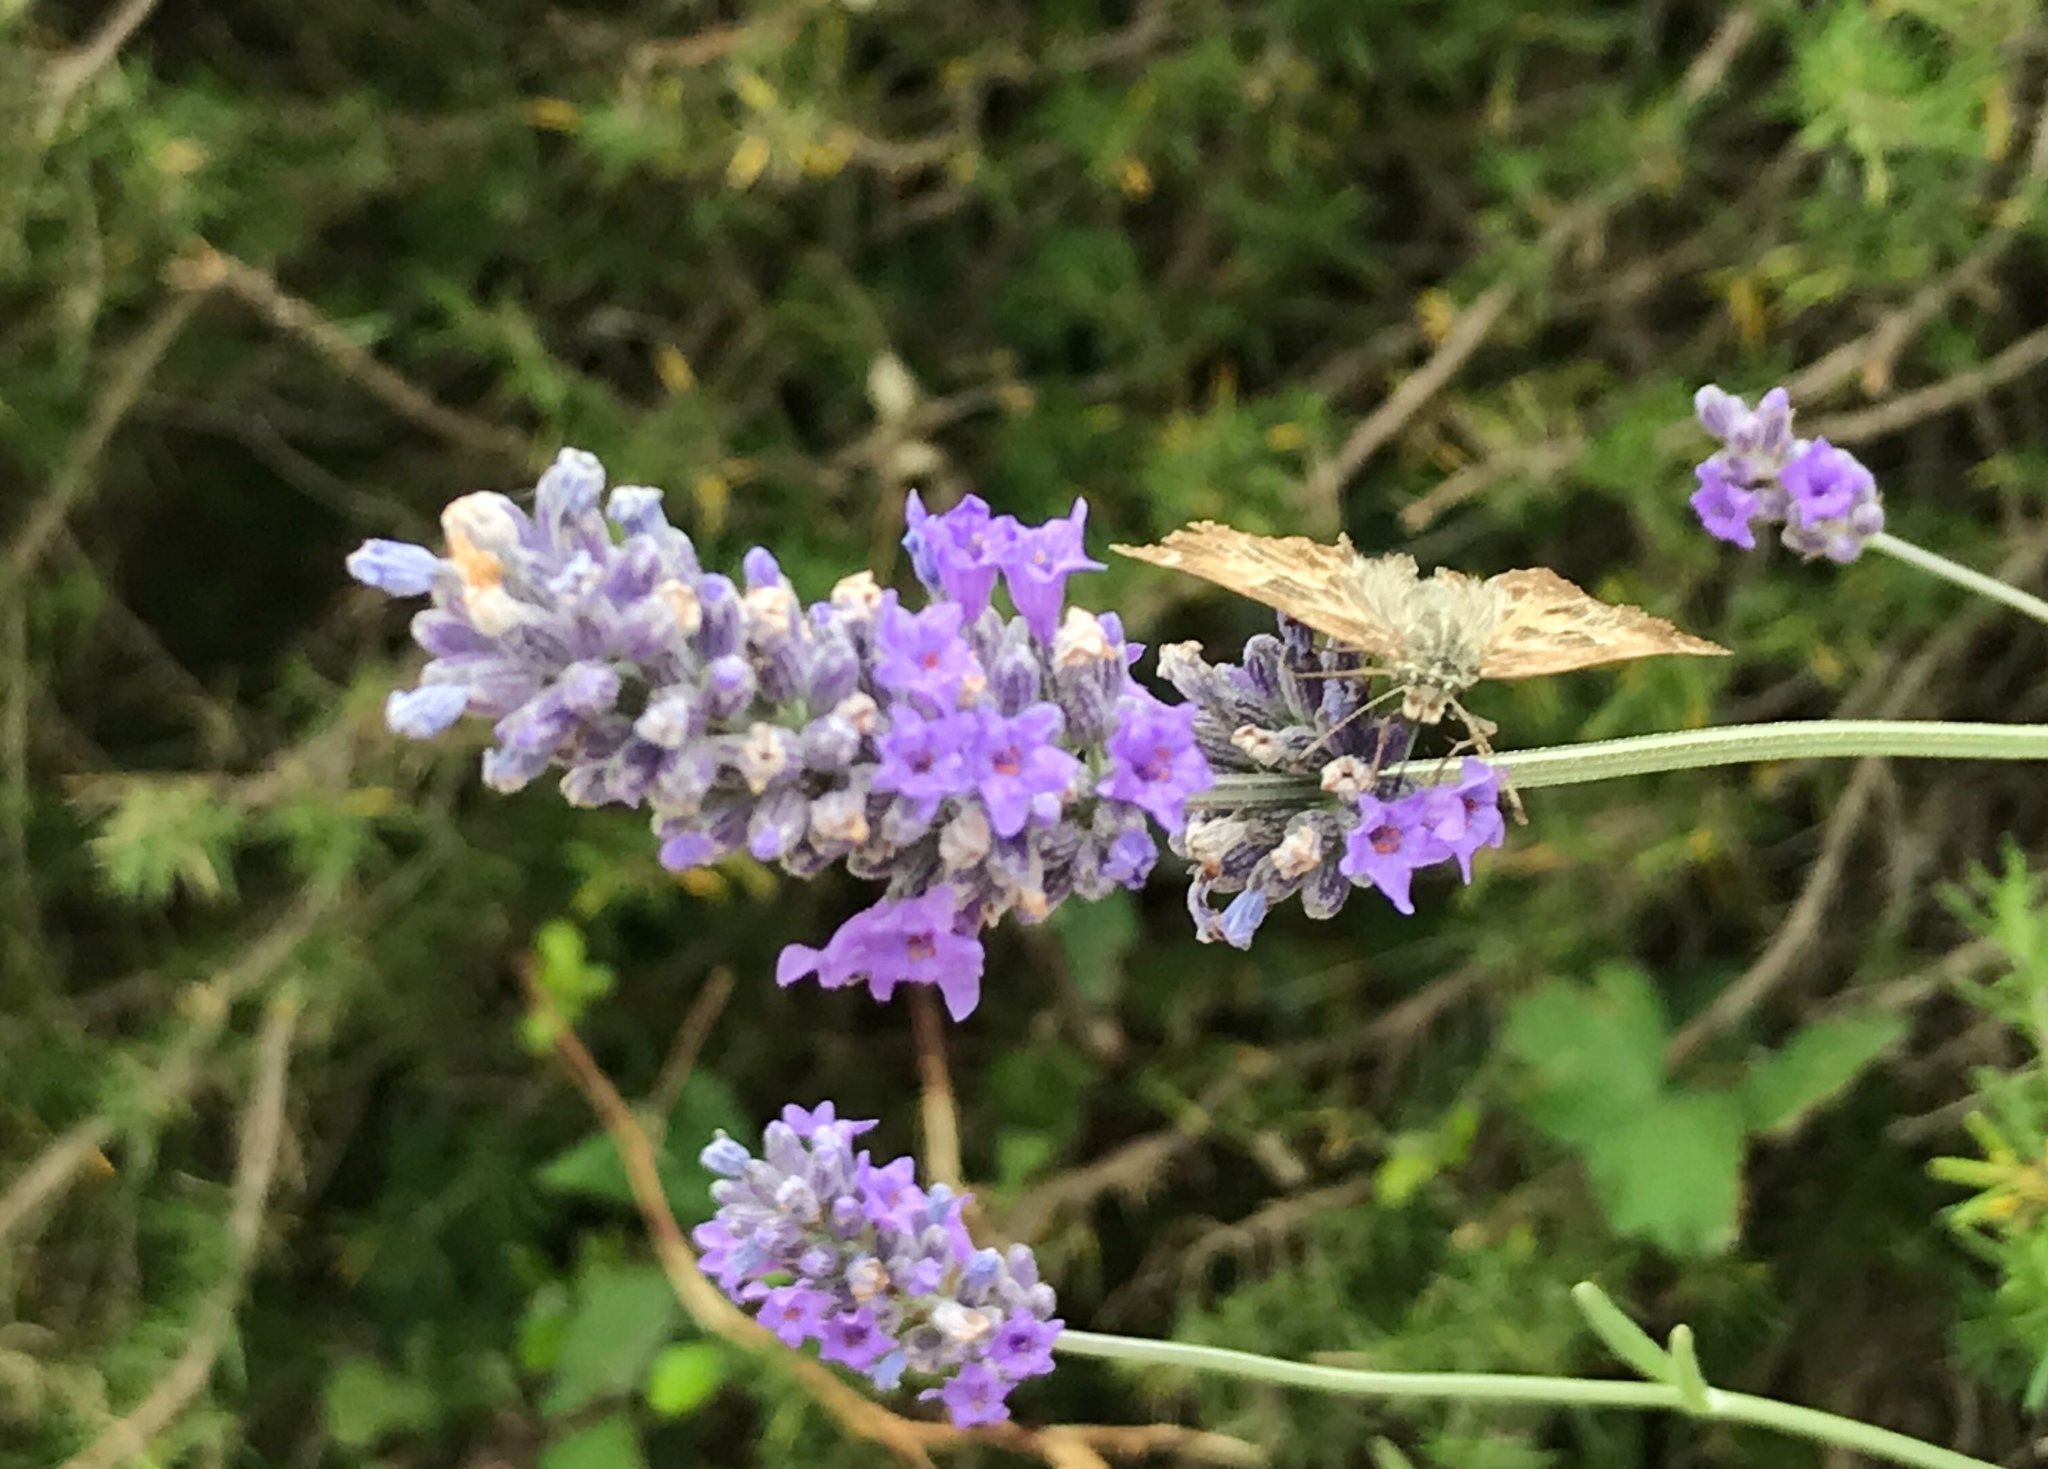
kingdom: Animalia
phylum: Arthropoda
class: Insecta
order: Lepidoptera
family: Hesperiidae
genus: Carcharodus
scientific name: Carcharodus alceae
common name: Mallow skipper
